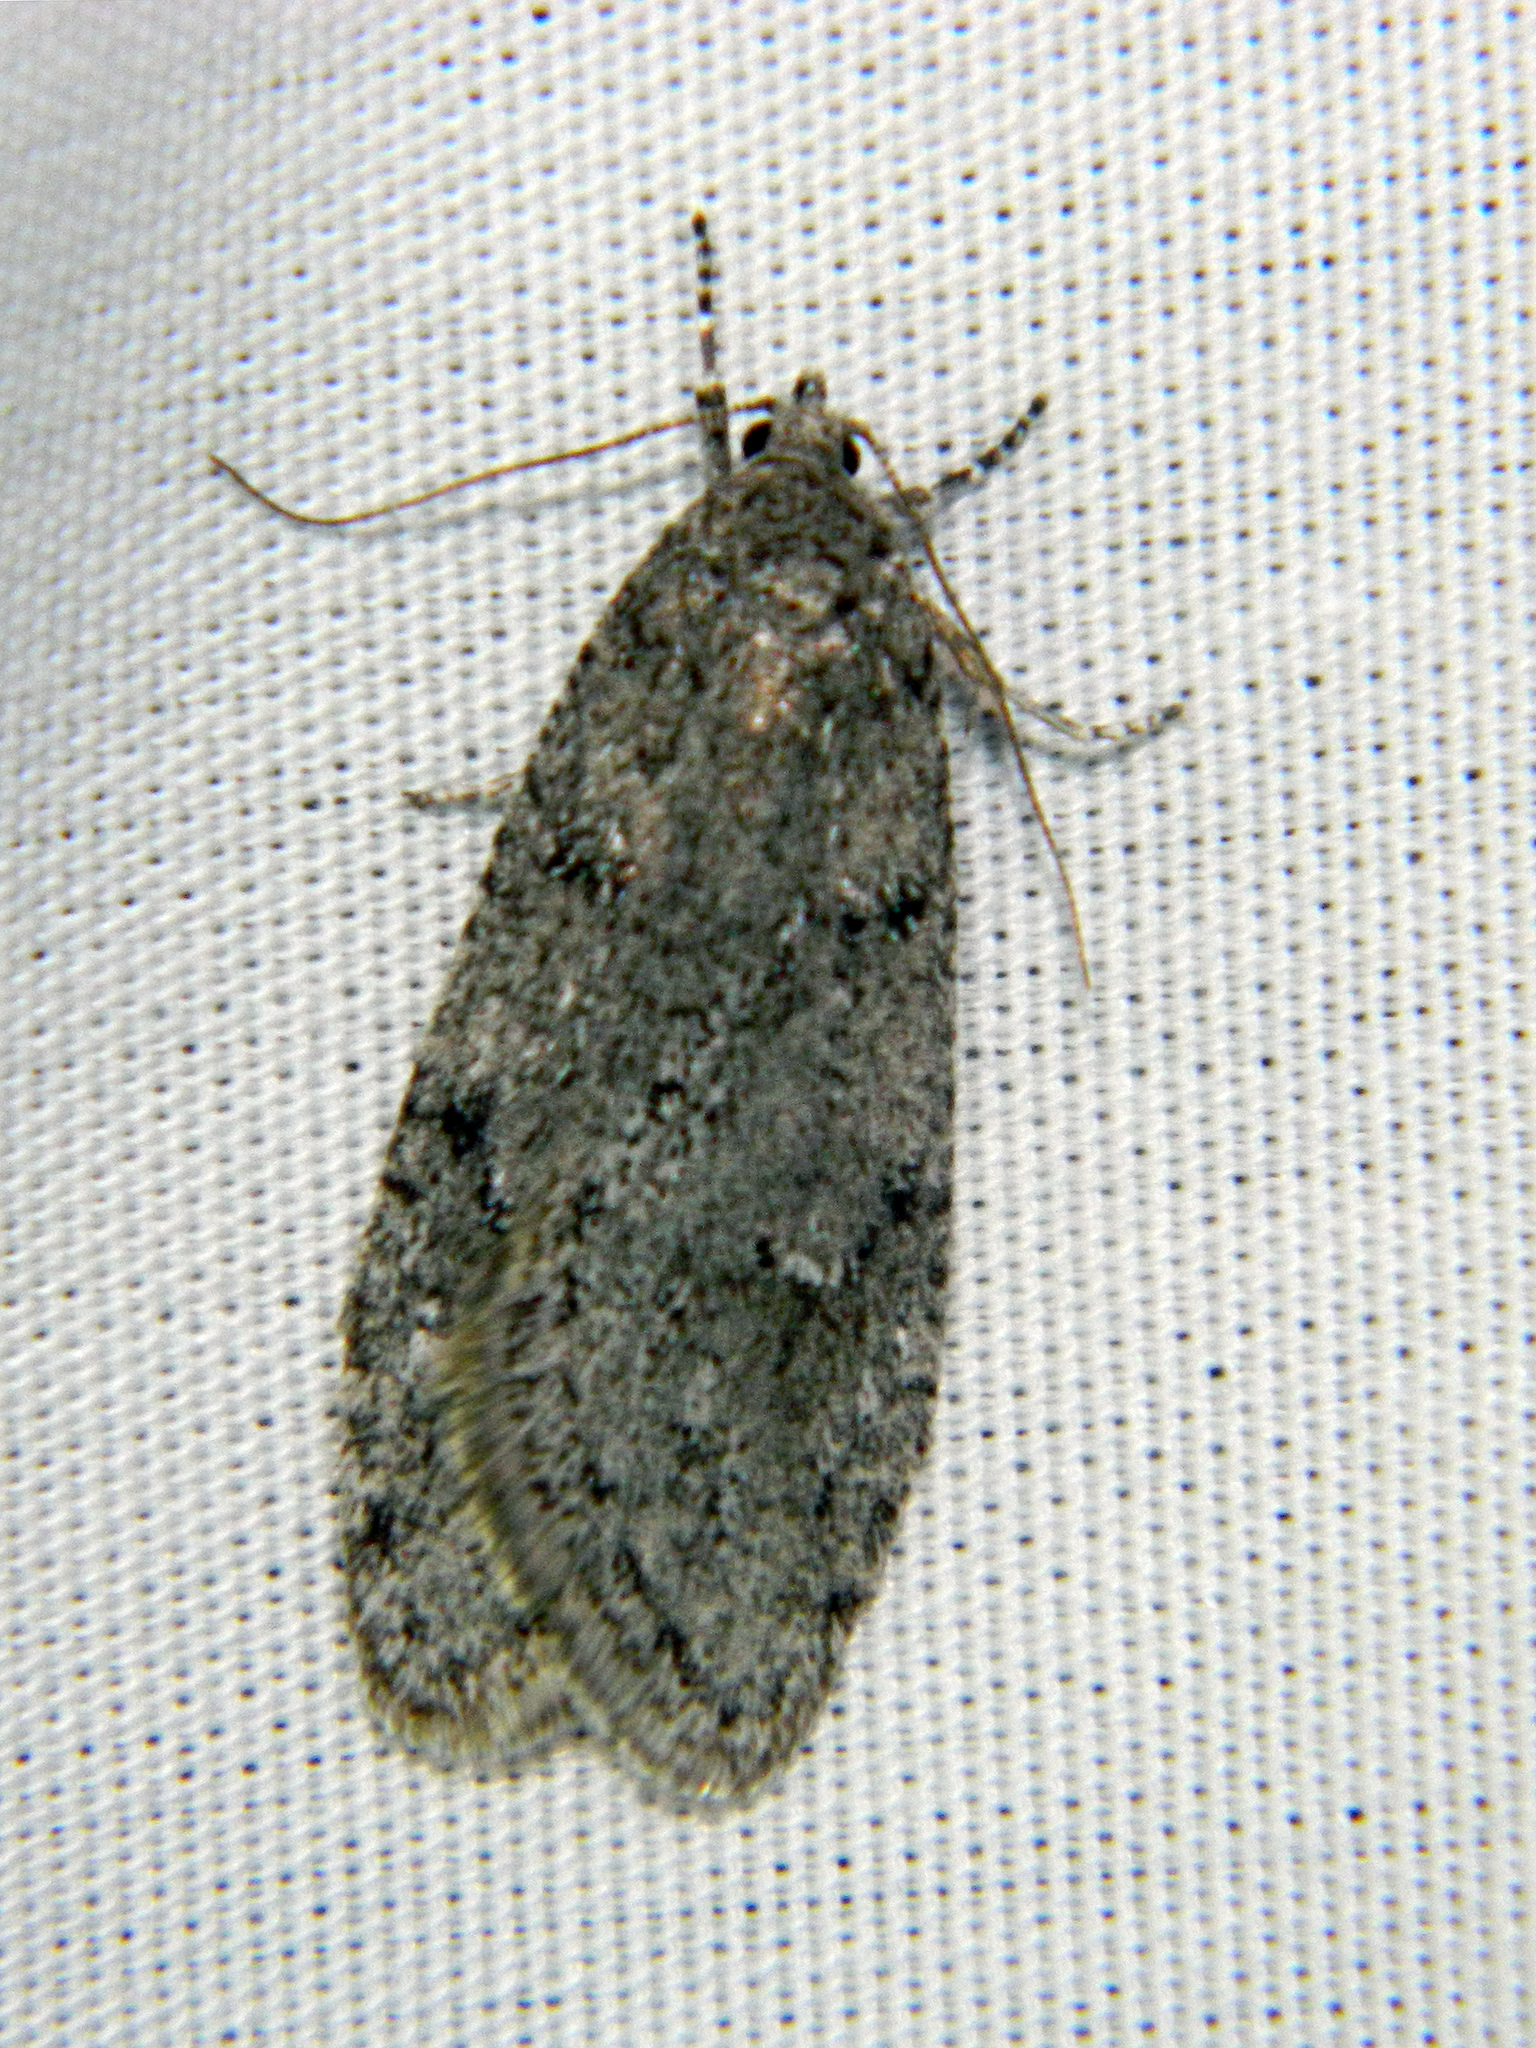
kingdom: Animalia
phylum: Arthropoda
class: Insecta
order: Lepidoptera
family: Depressariidae
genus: Semioscopis
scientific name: Semioscopis inornata
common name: Poplar micromoth
